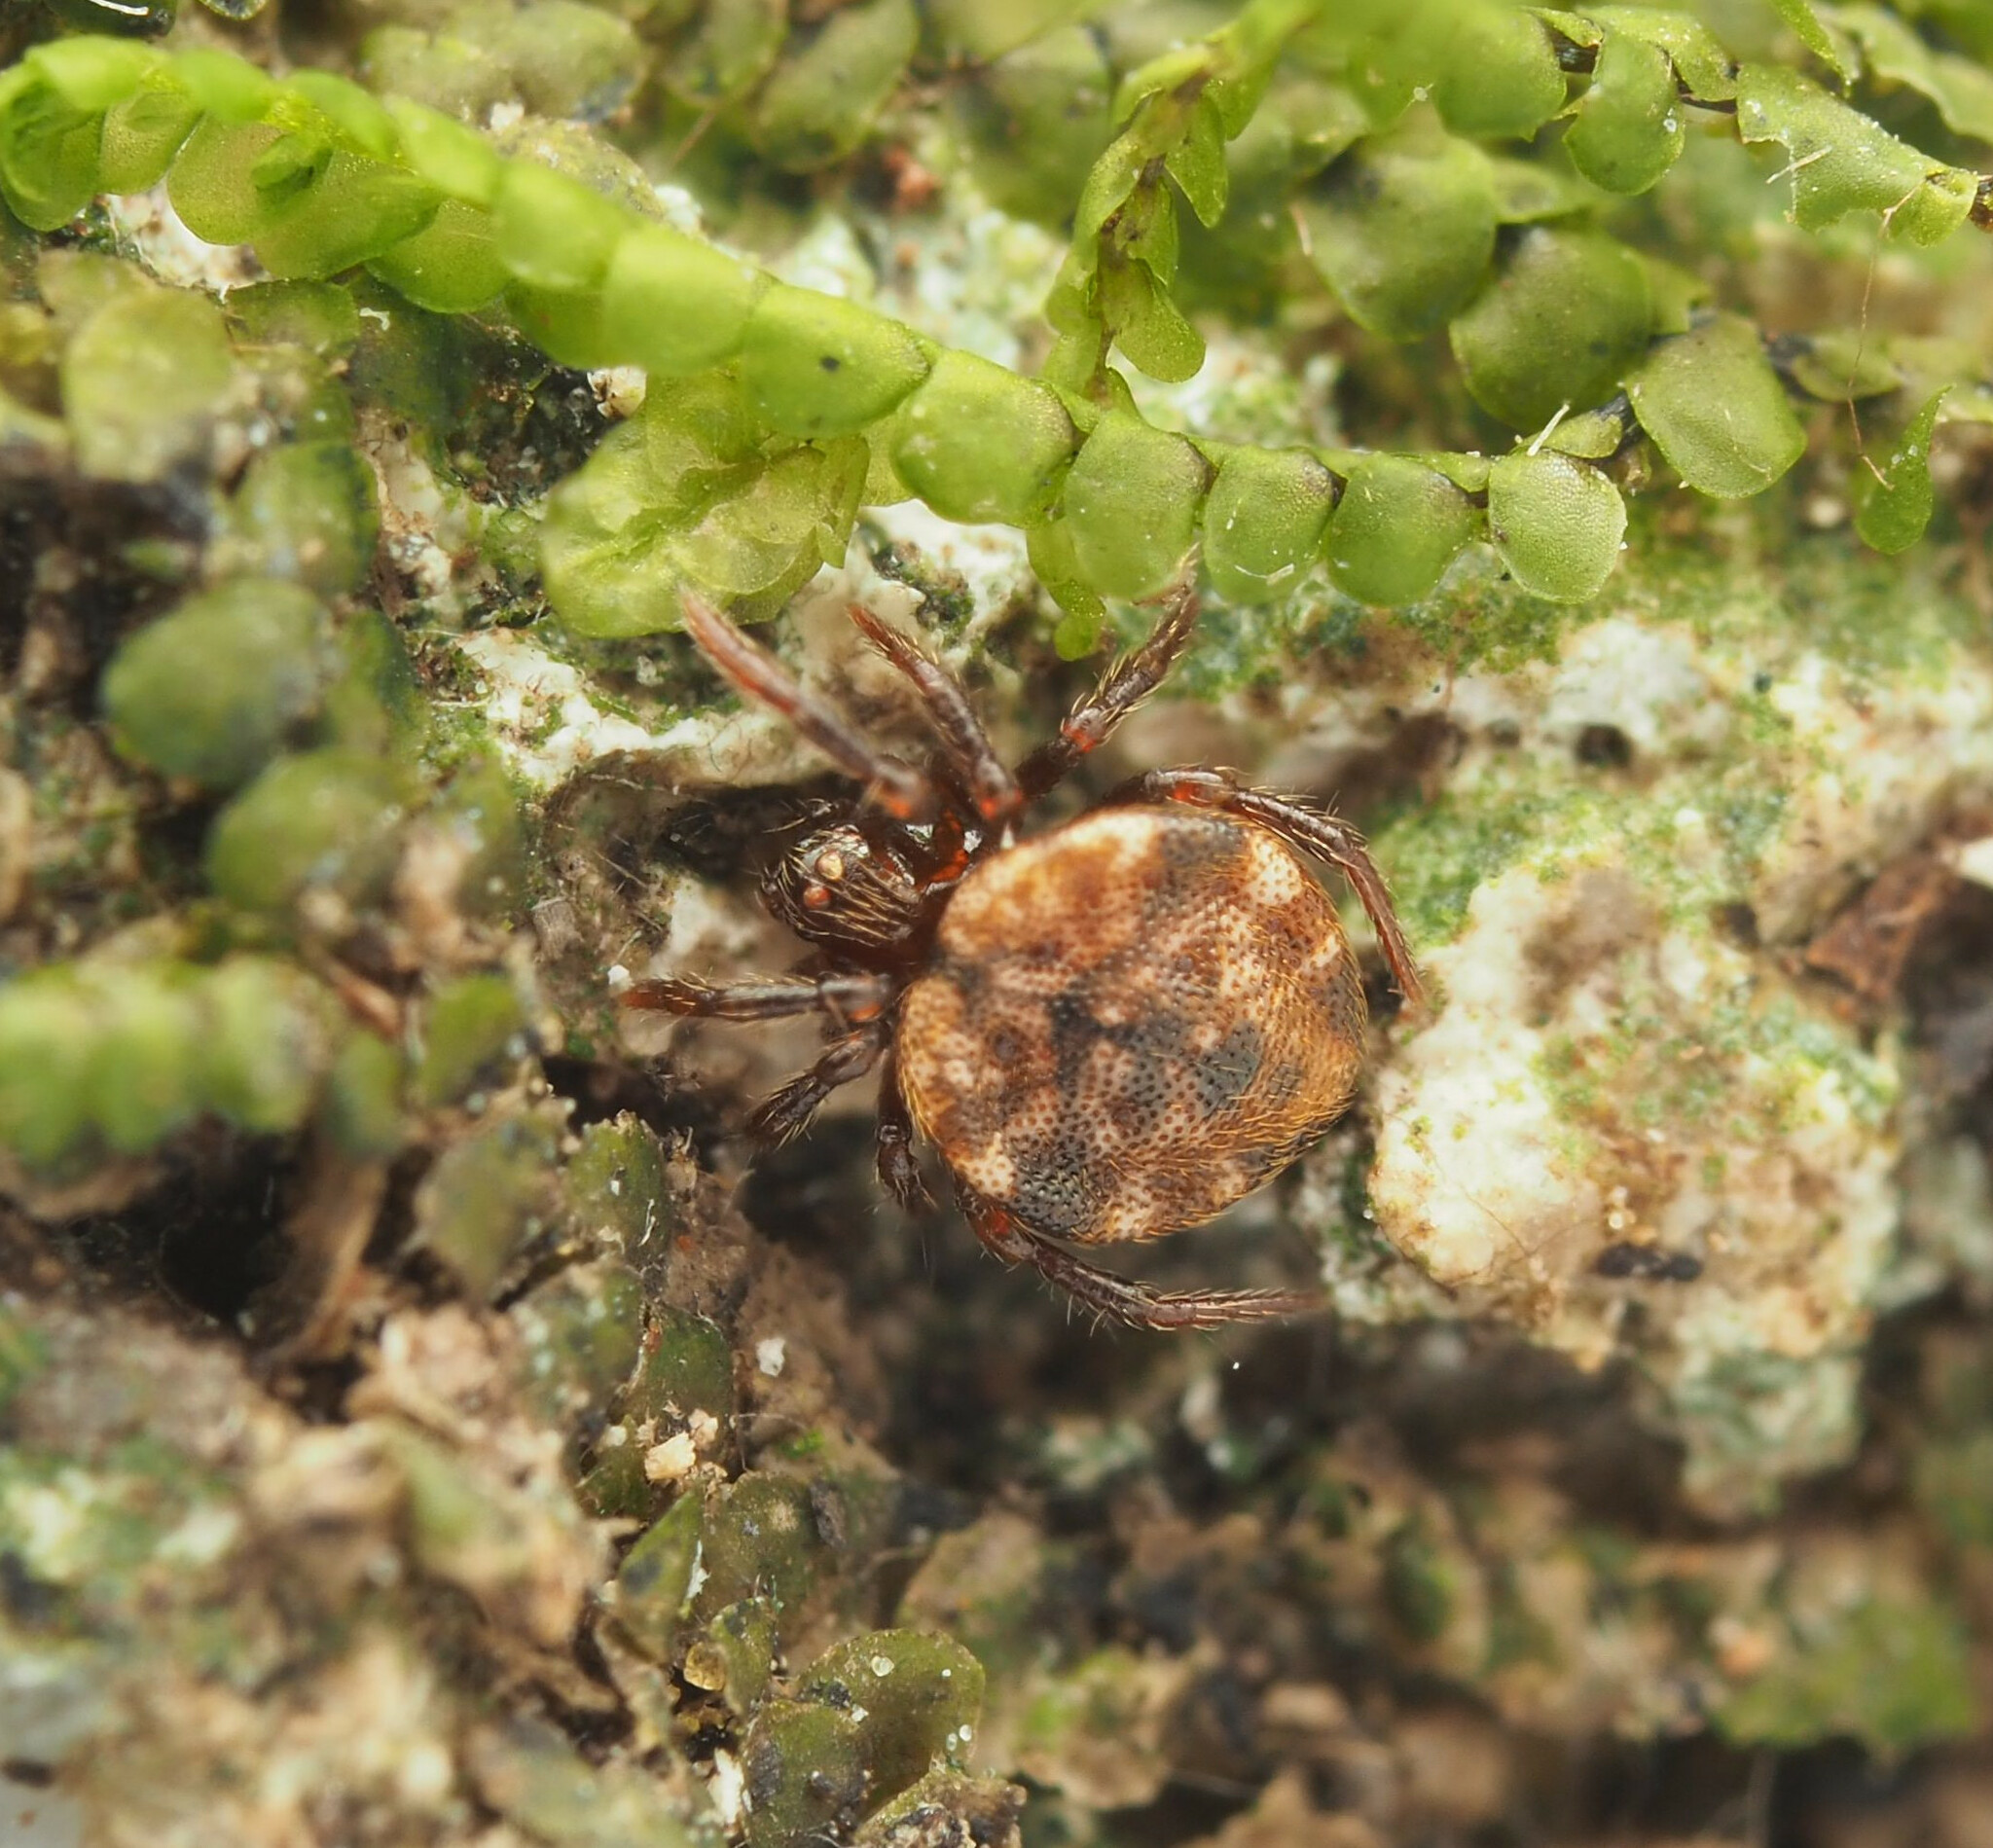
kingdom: Animalia
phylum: Arthropoda
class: Arachnida
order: Araneae
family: Theridiidae
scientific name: Theridiidae
